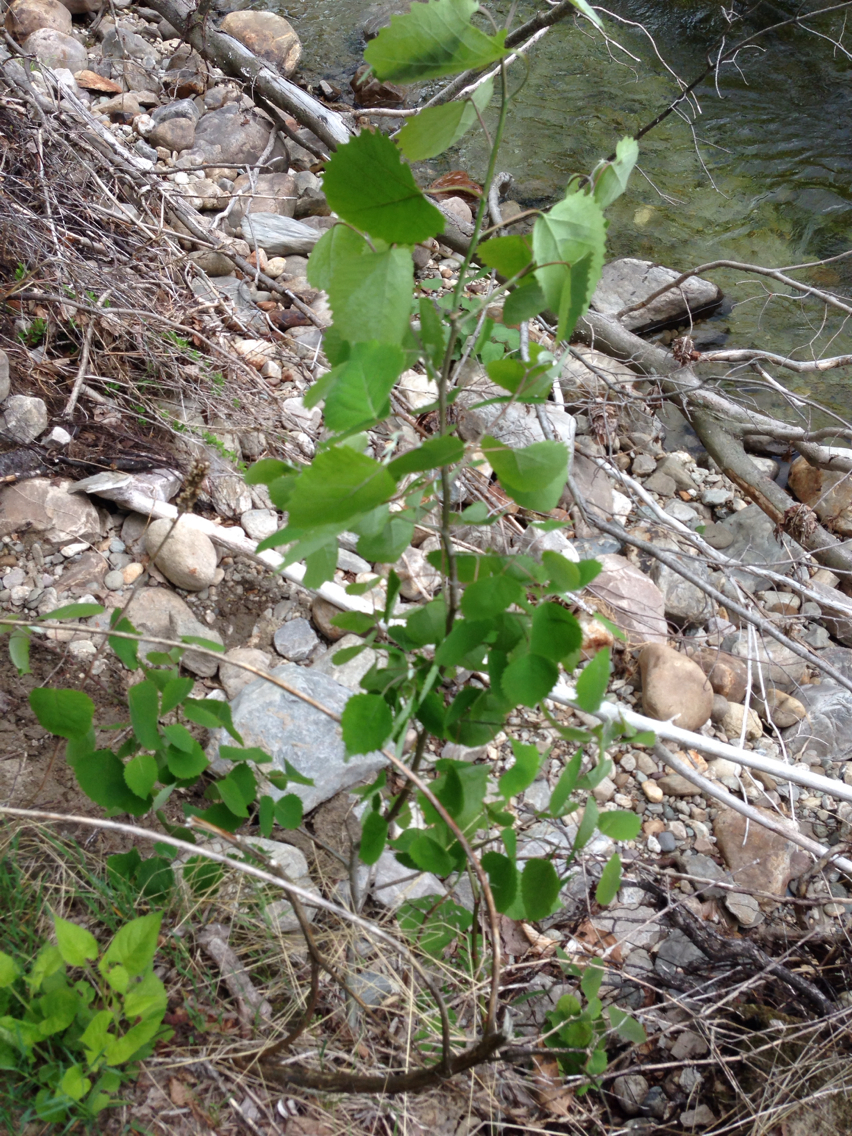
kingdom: Plantae
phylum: Tracheophyta
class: Magnoliopsida
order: Malpighiales
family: Salicaceae
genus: Populus
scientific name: Populus grandidentata
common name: Bigtooth aspen
